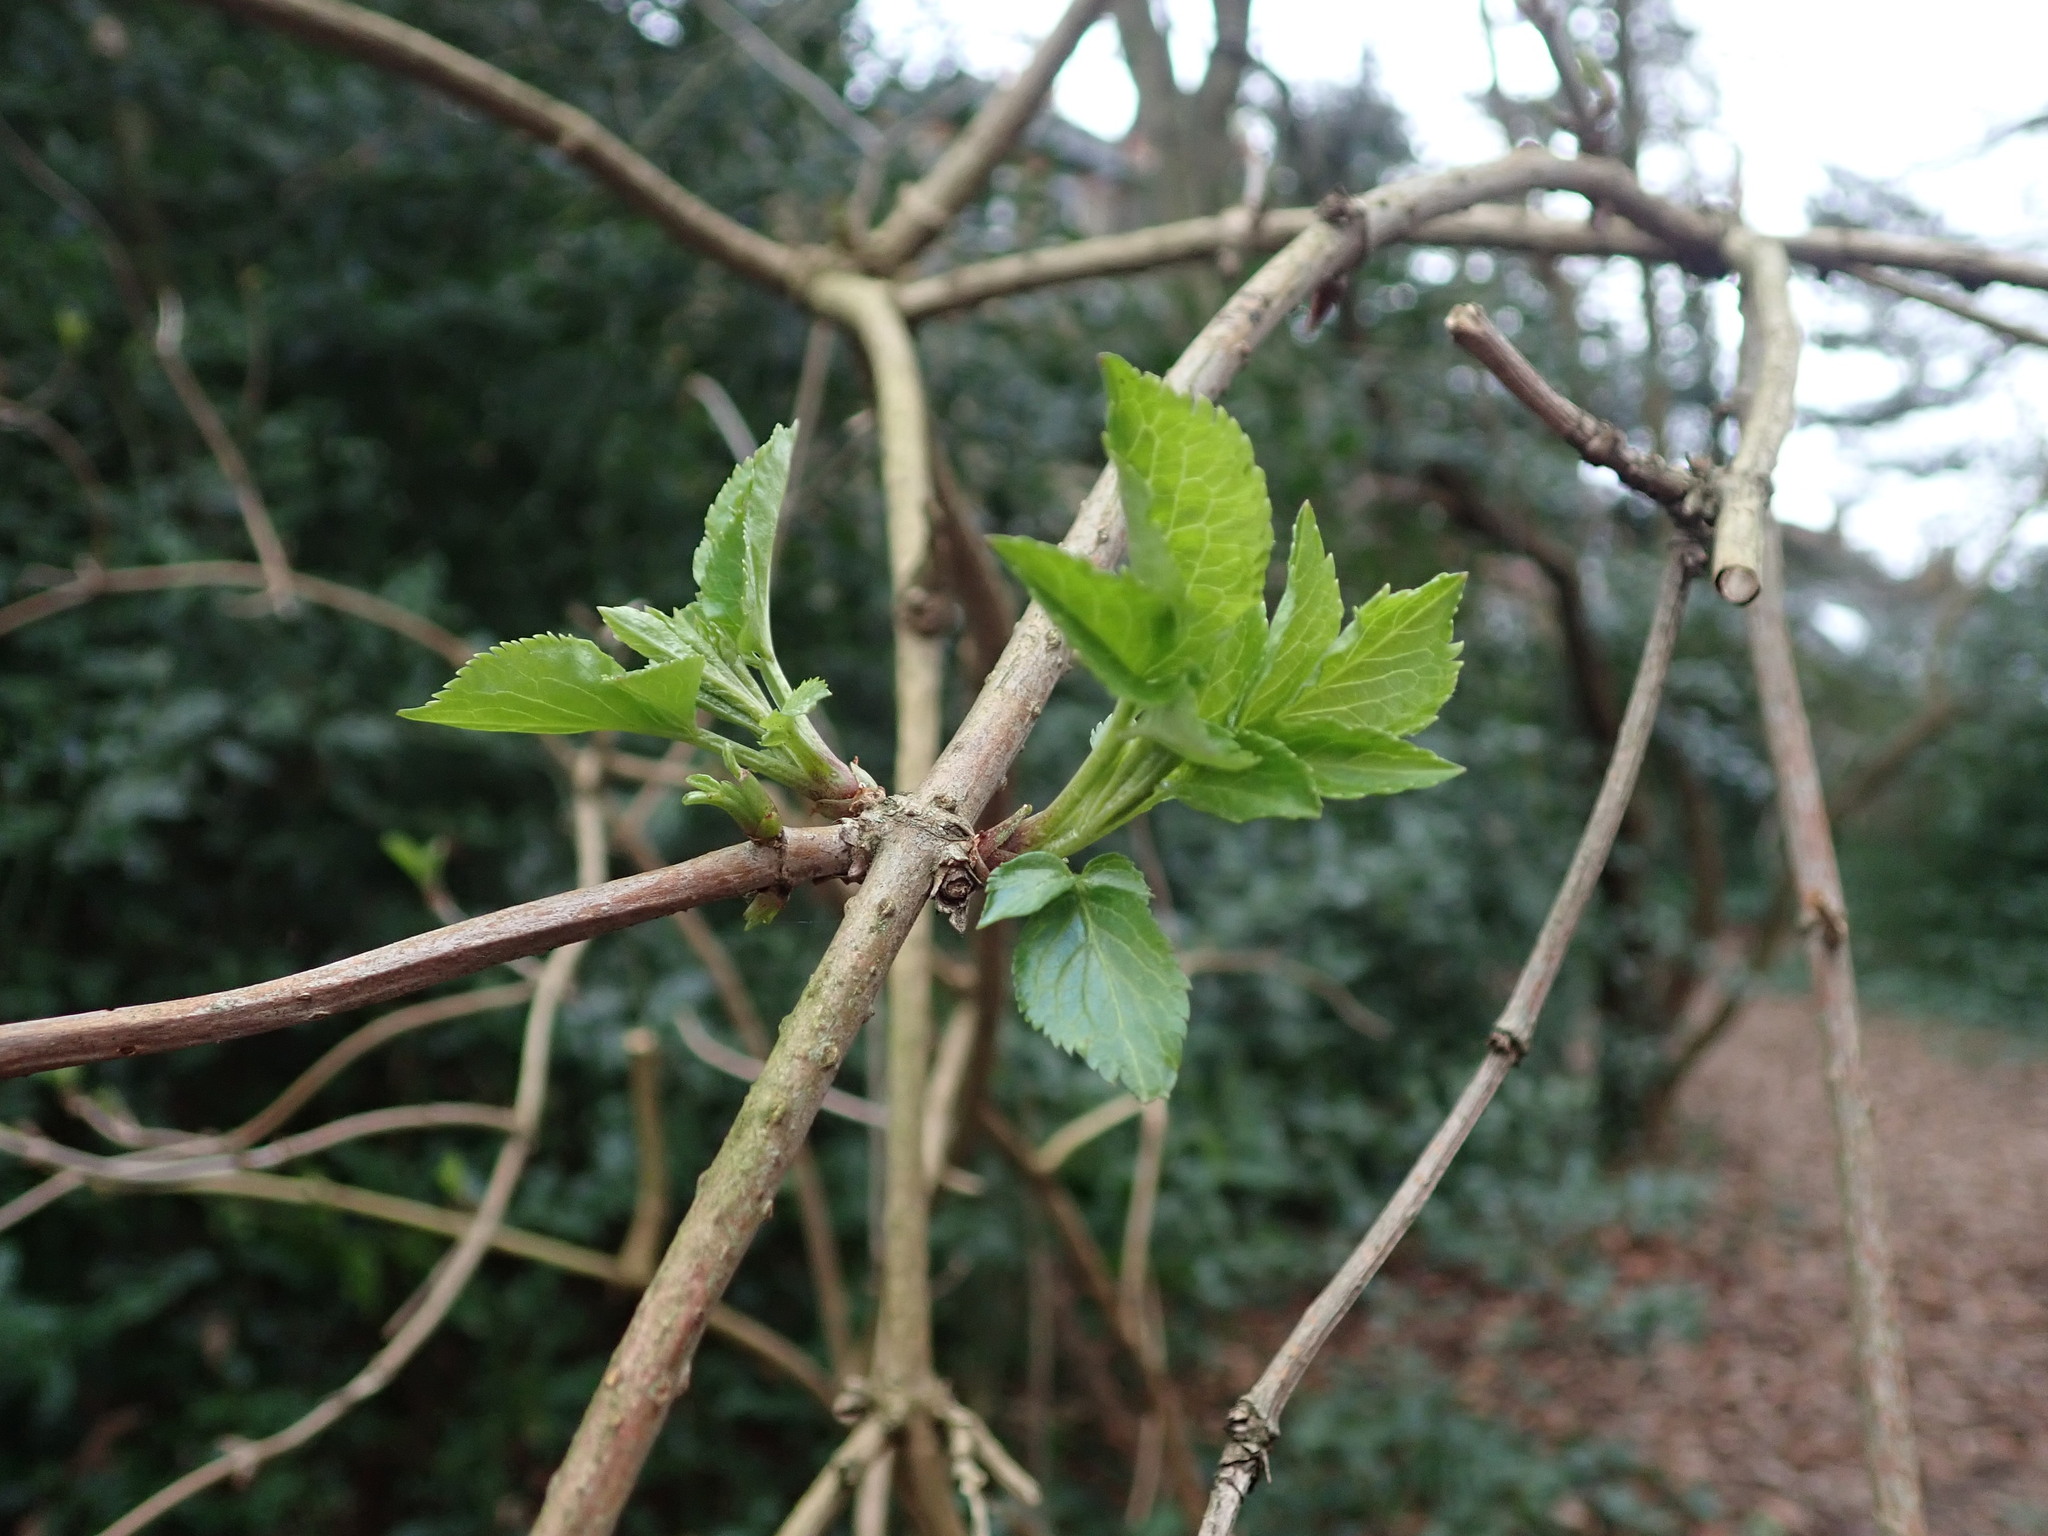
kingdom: Plantae
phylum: Tracheophyta
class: Magnoliopsida
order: Dipsacales
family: Viburnaceae
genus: Sambucus
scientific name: Sambucus nigra
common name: Elder
